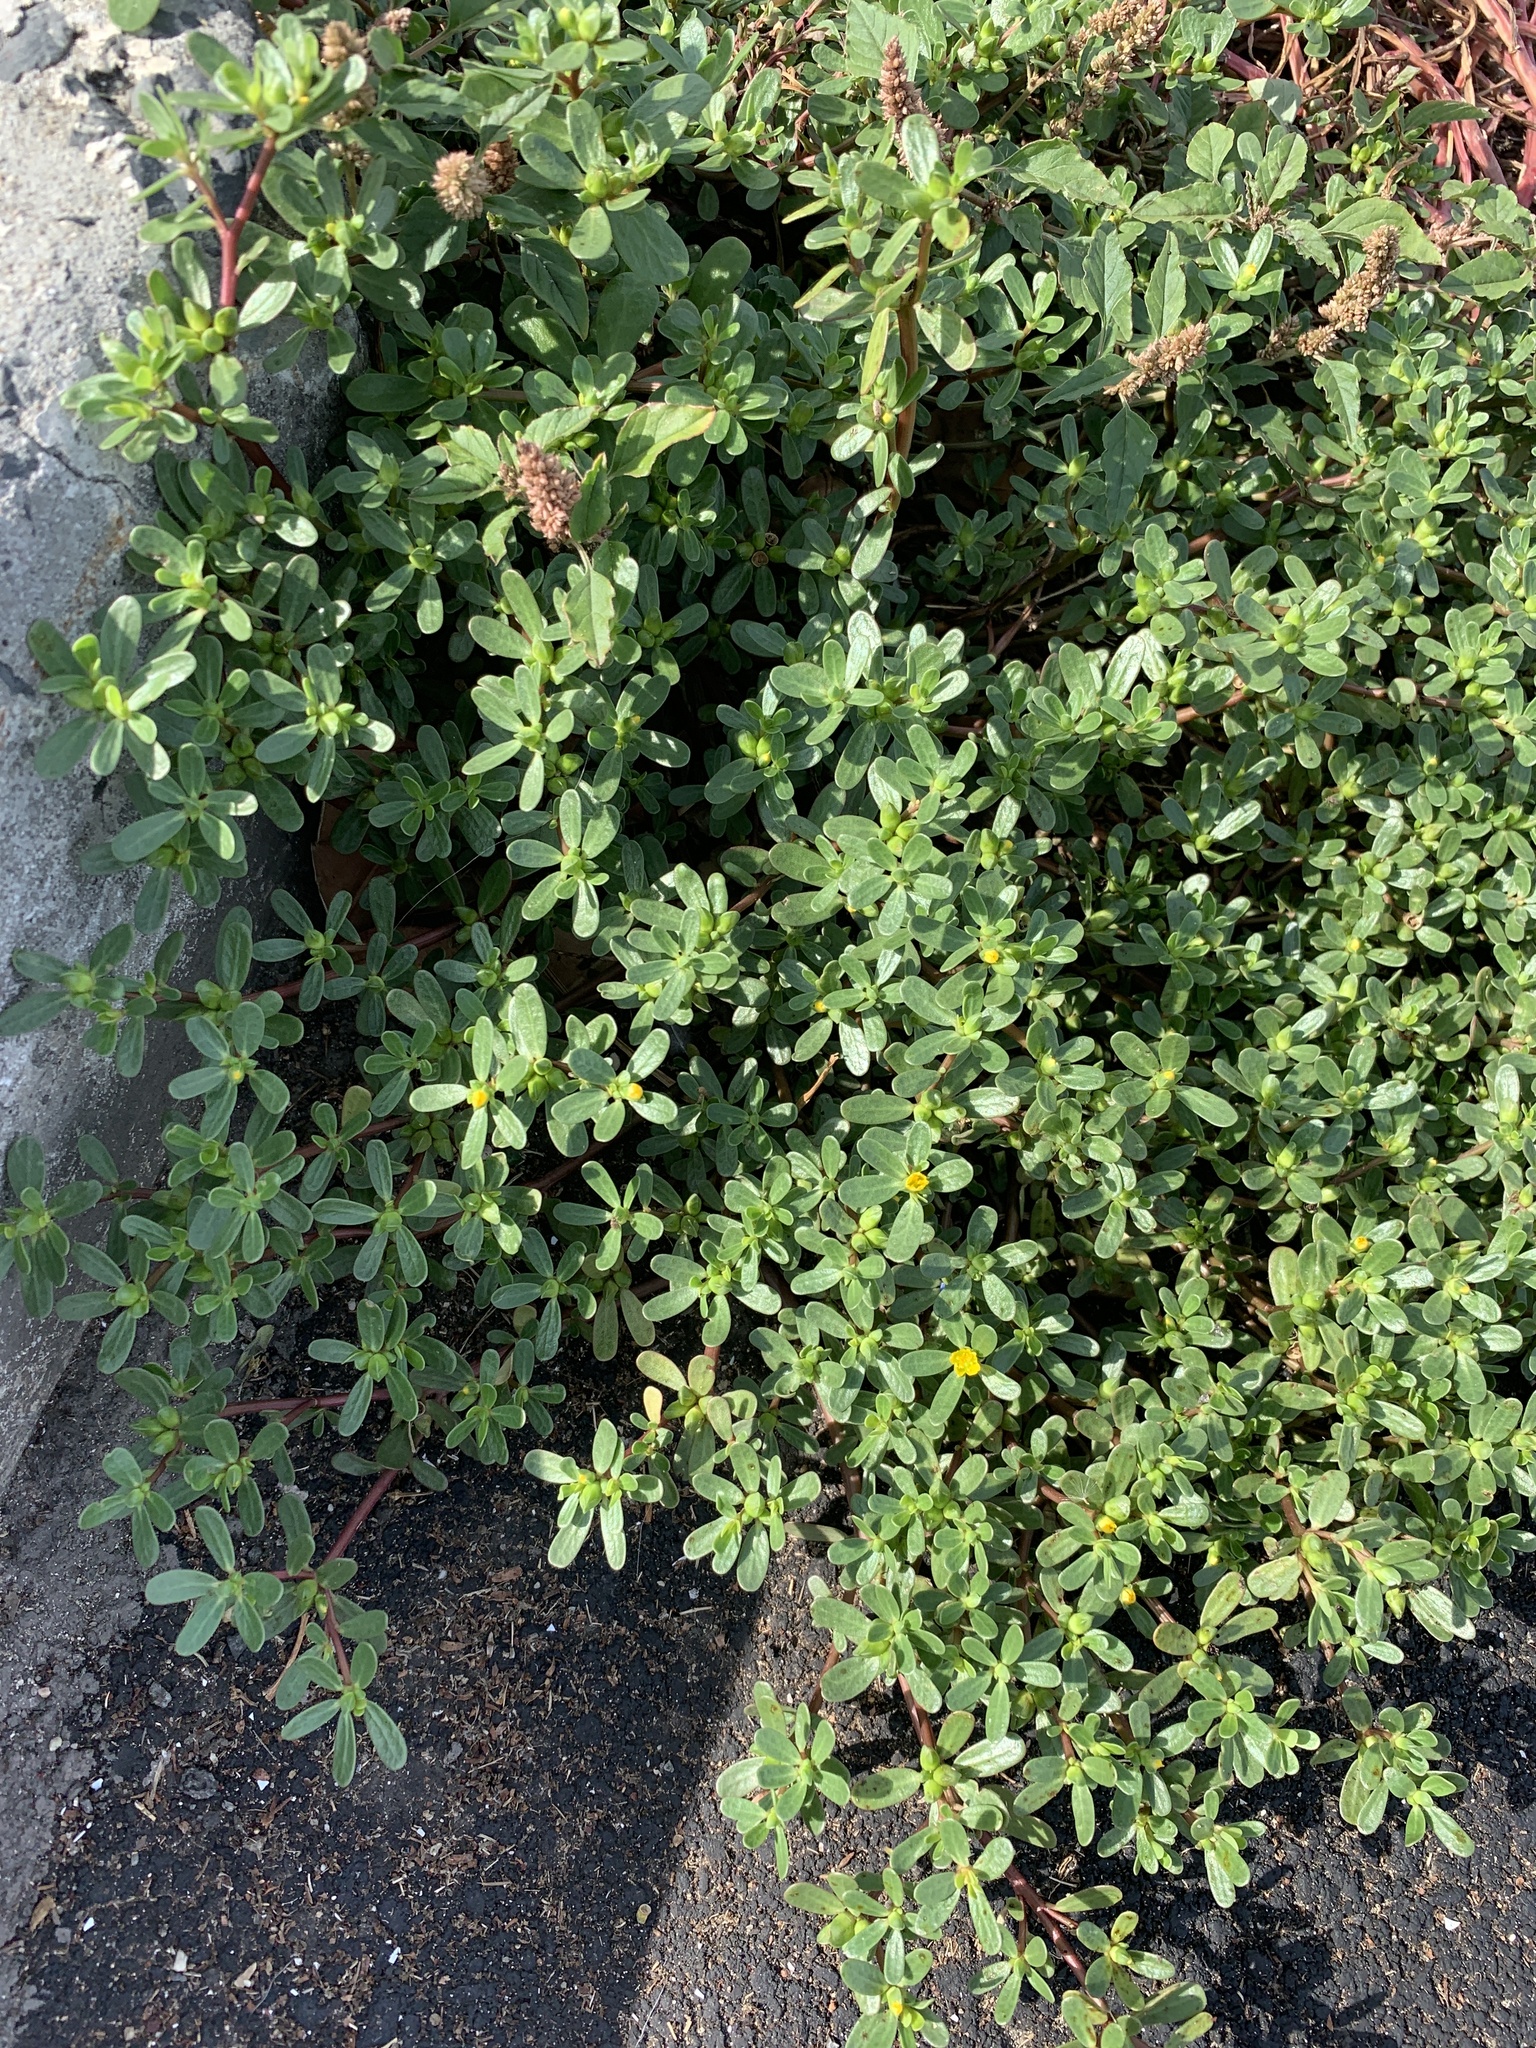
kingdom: Plantae
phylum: Tracheophyta
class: Magnoliopsida
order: Caryophyllales
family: Portulacaceae
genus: Portulaca
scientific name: Portulaca oleracea
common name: Common purslane
